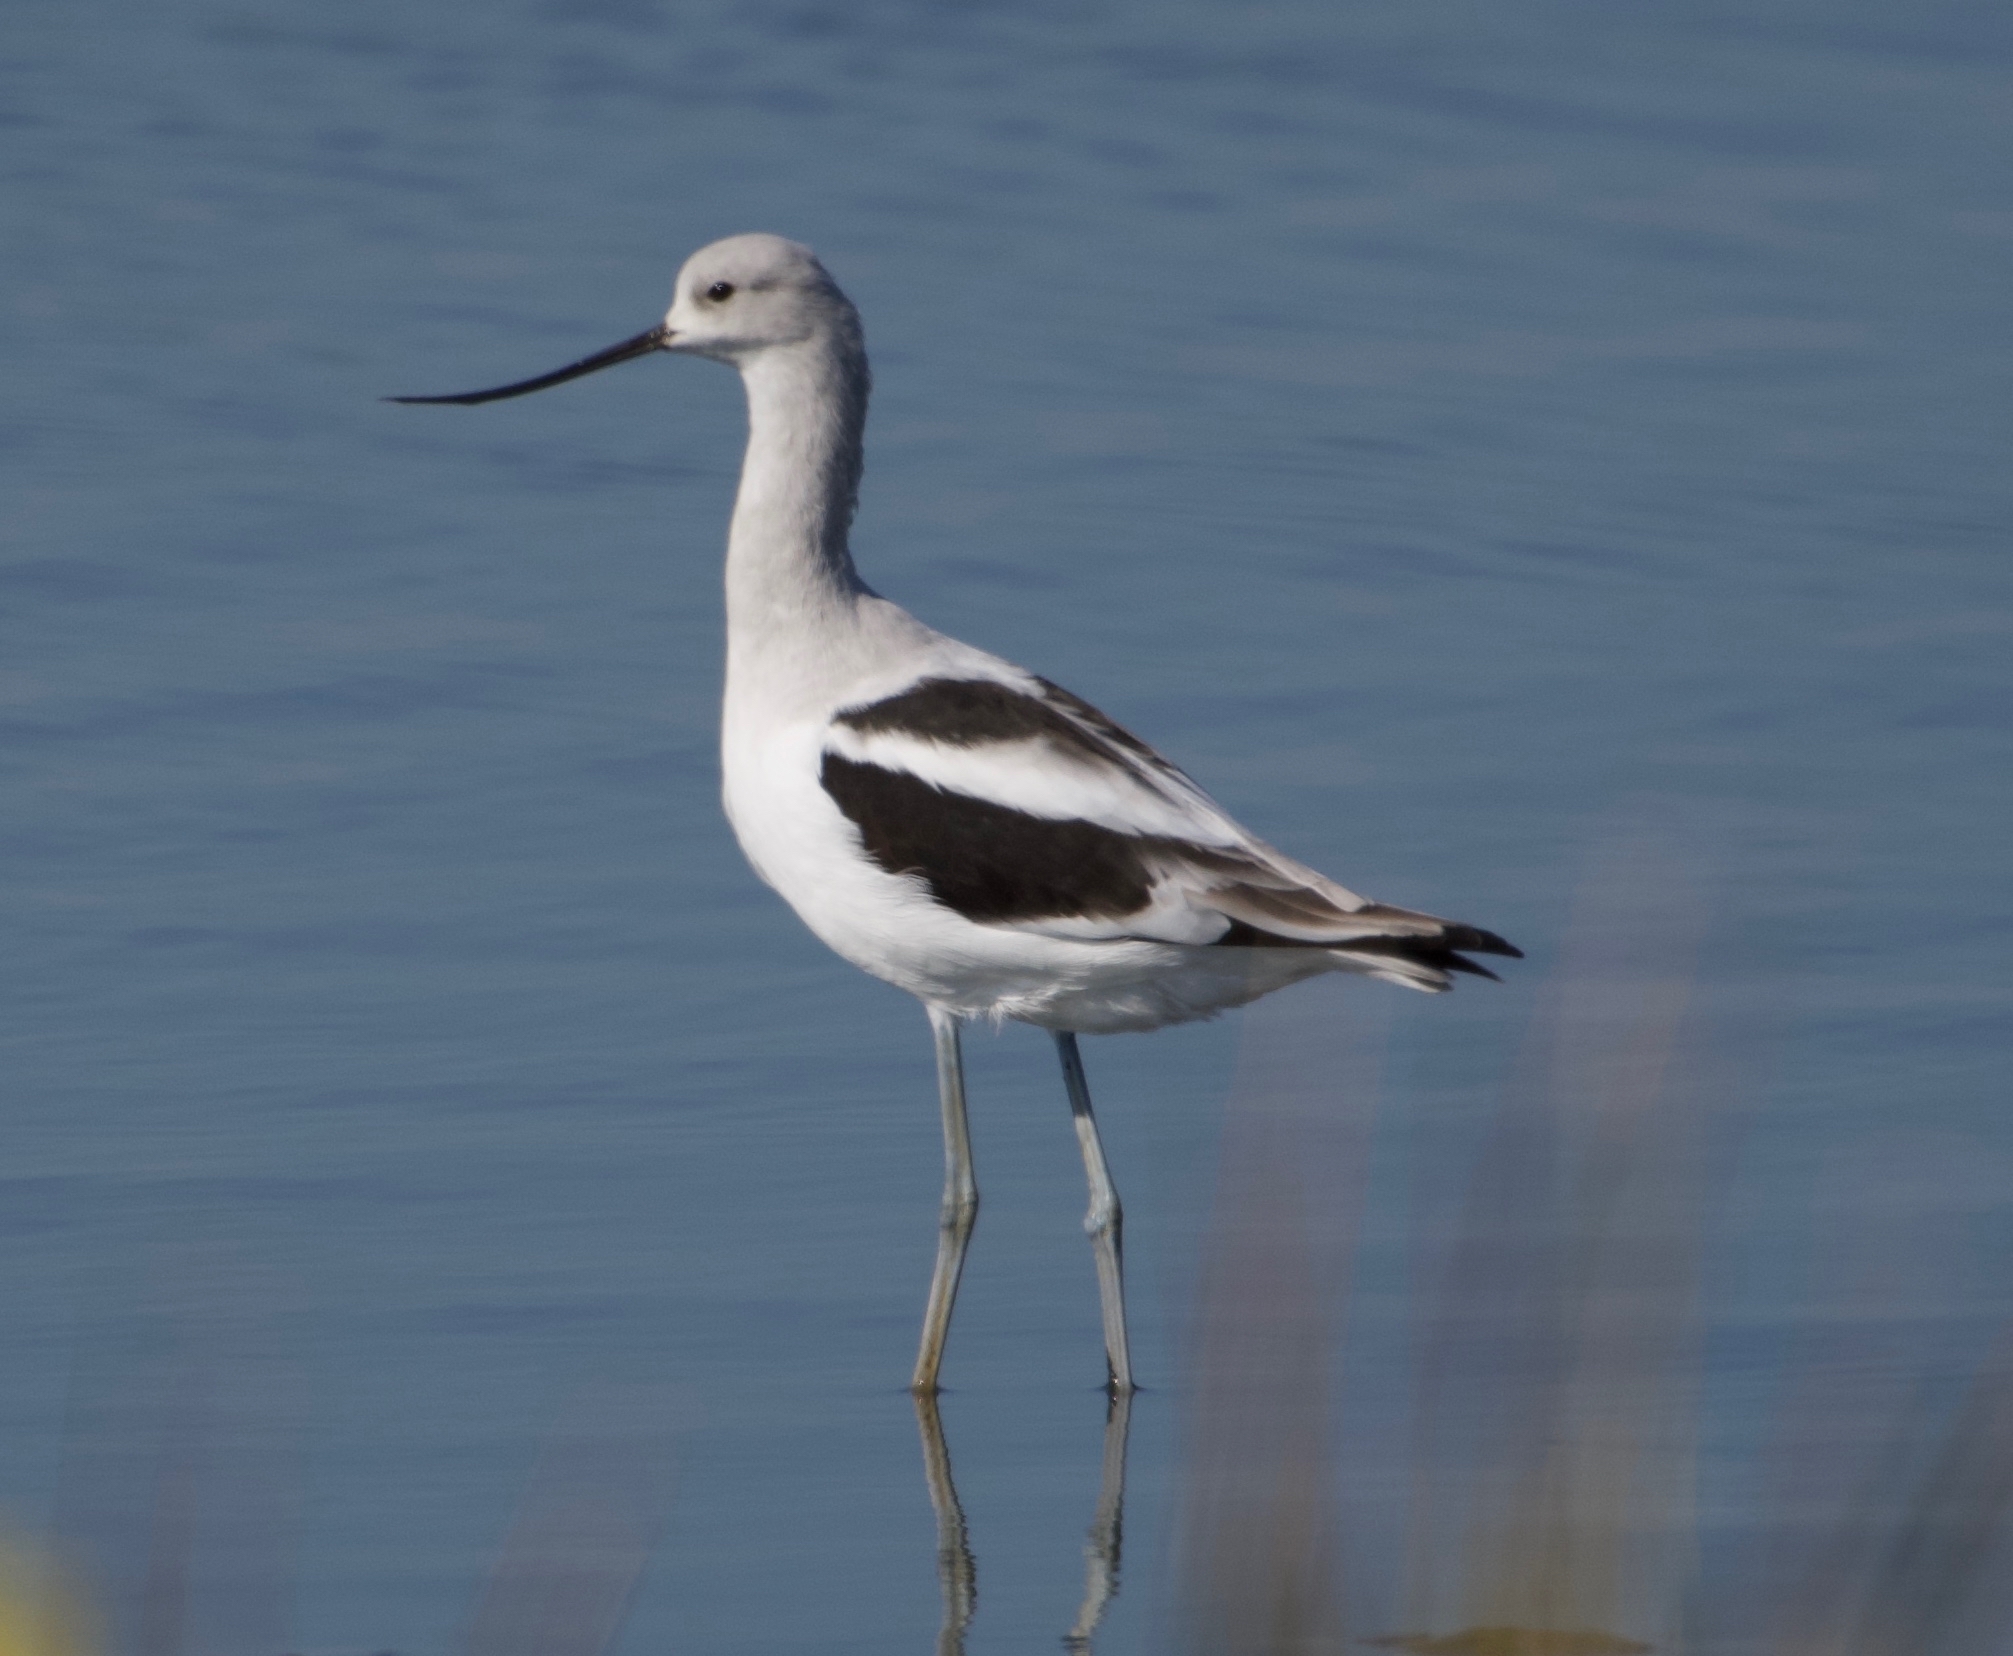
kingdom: Animalia
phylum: Chordata
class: Aves
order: Charadriiformes
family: Recurvirostridae
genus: Recurvirostra
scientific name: Recurvirostra americana
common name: American avocet
